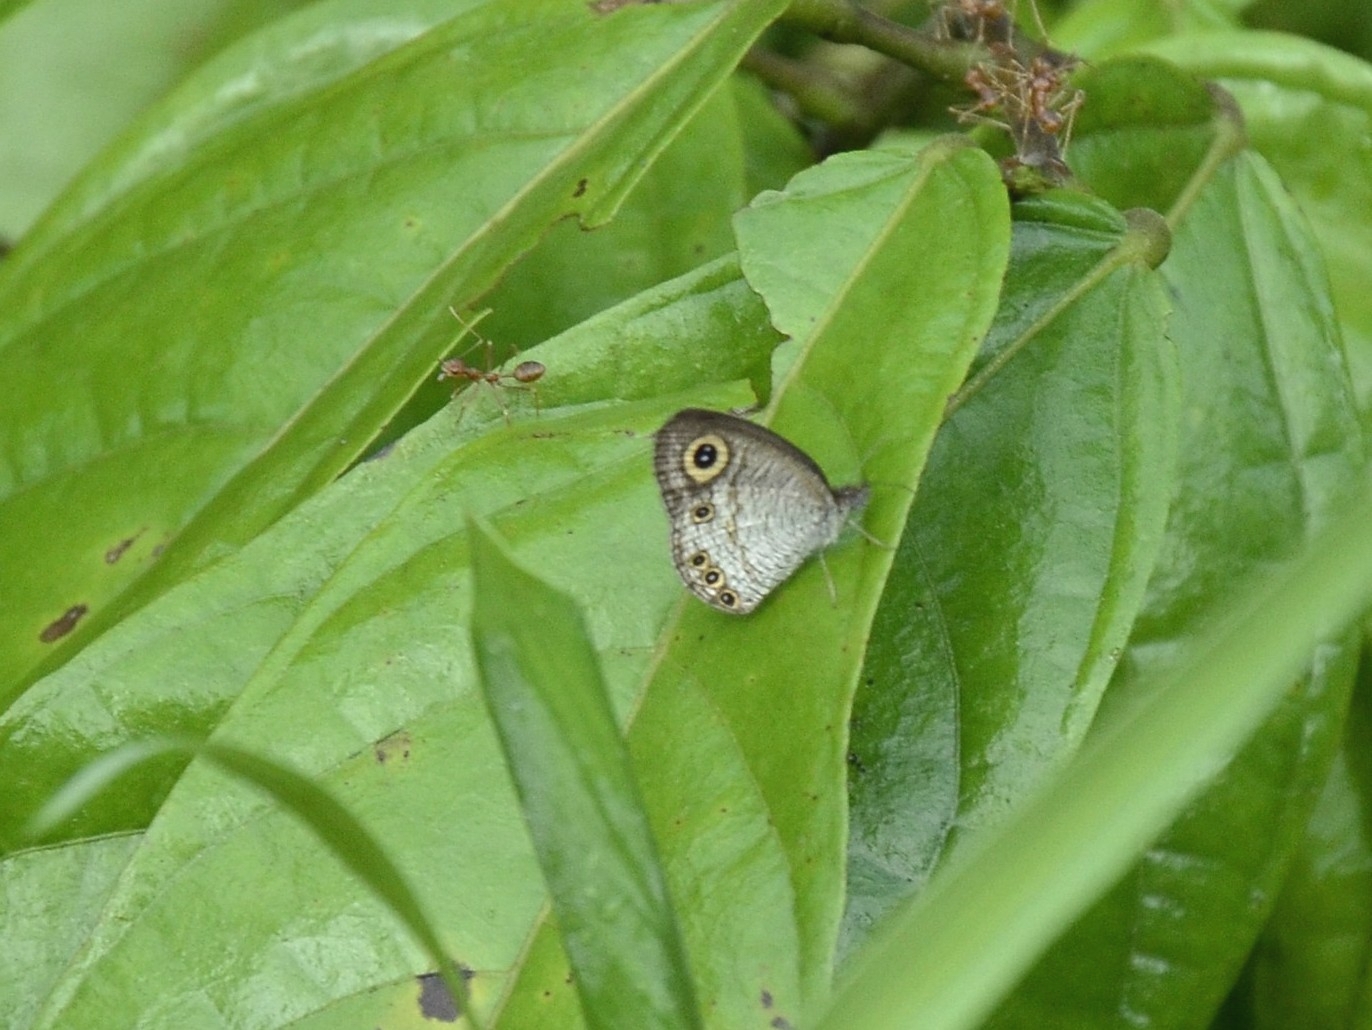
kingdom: Animalia
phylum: Arthropoda
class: Insecta
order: Lepidoptera
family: Nymphalidae
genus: Ypthima
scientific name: Ypthima huebneri
